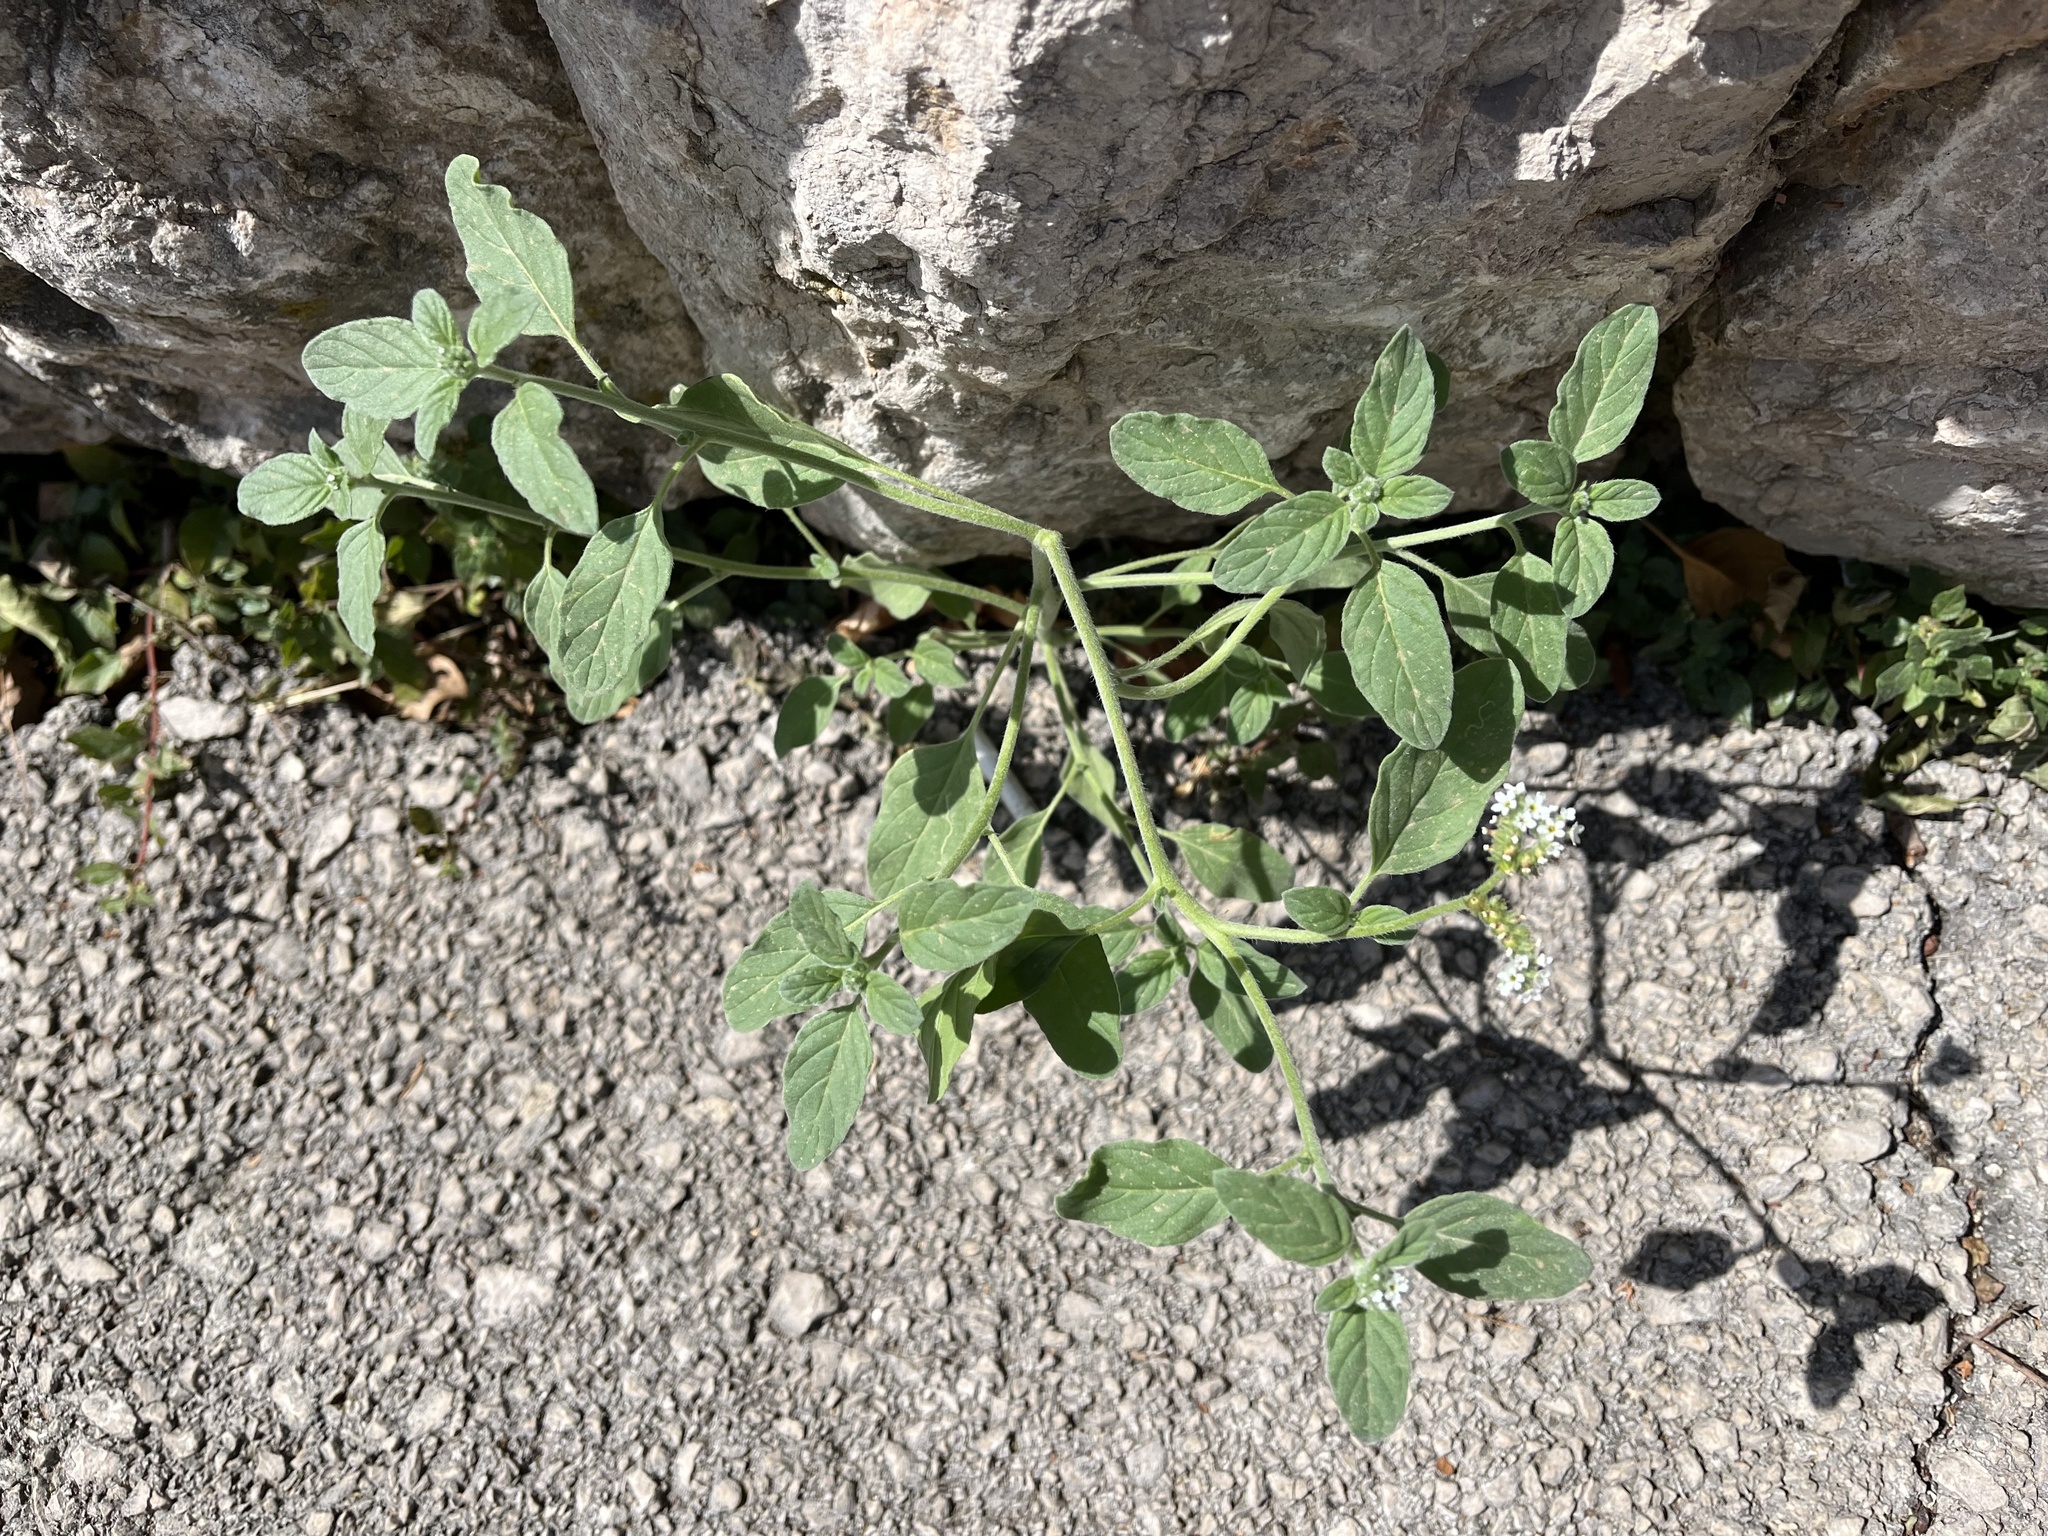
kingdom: Plantae
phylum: Tracheophyta
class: Magnoliopsida
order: Boraginales
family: Heliotropiaceae
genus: Heliotropium
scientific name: Heliotropium europaeum
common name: European heliotrope
